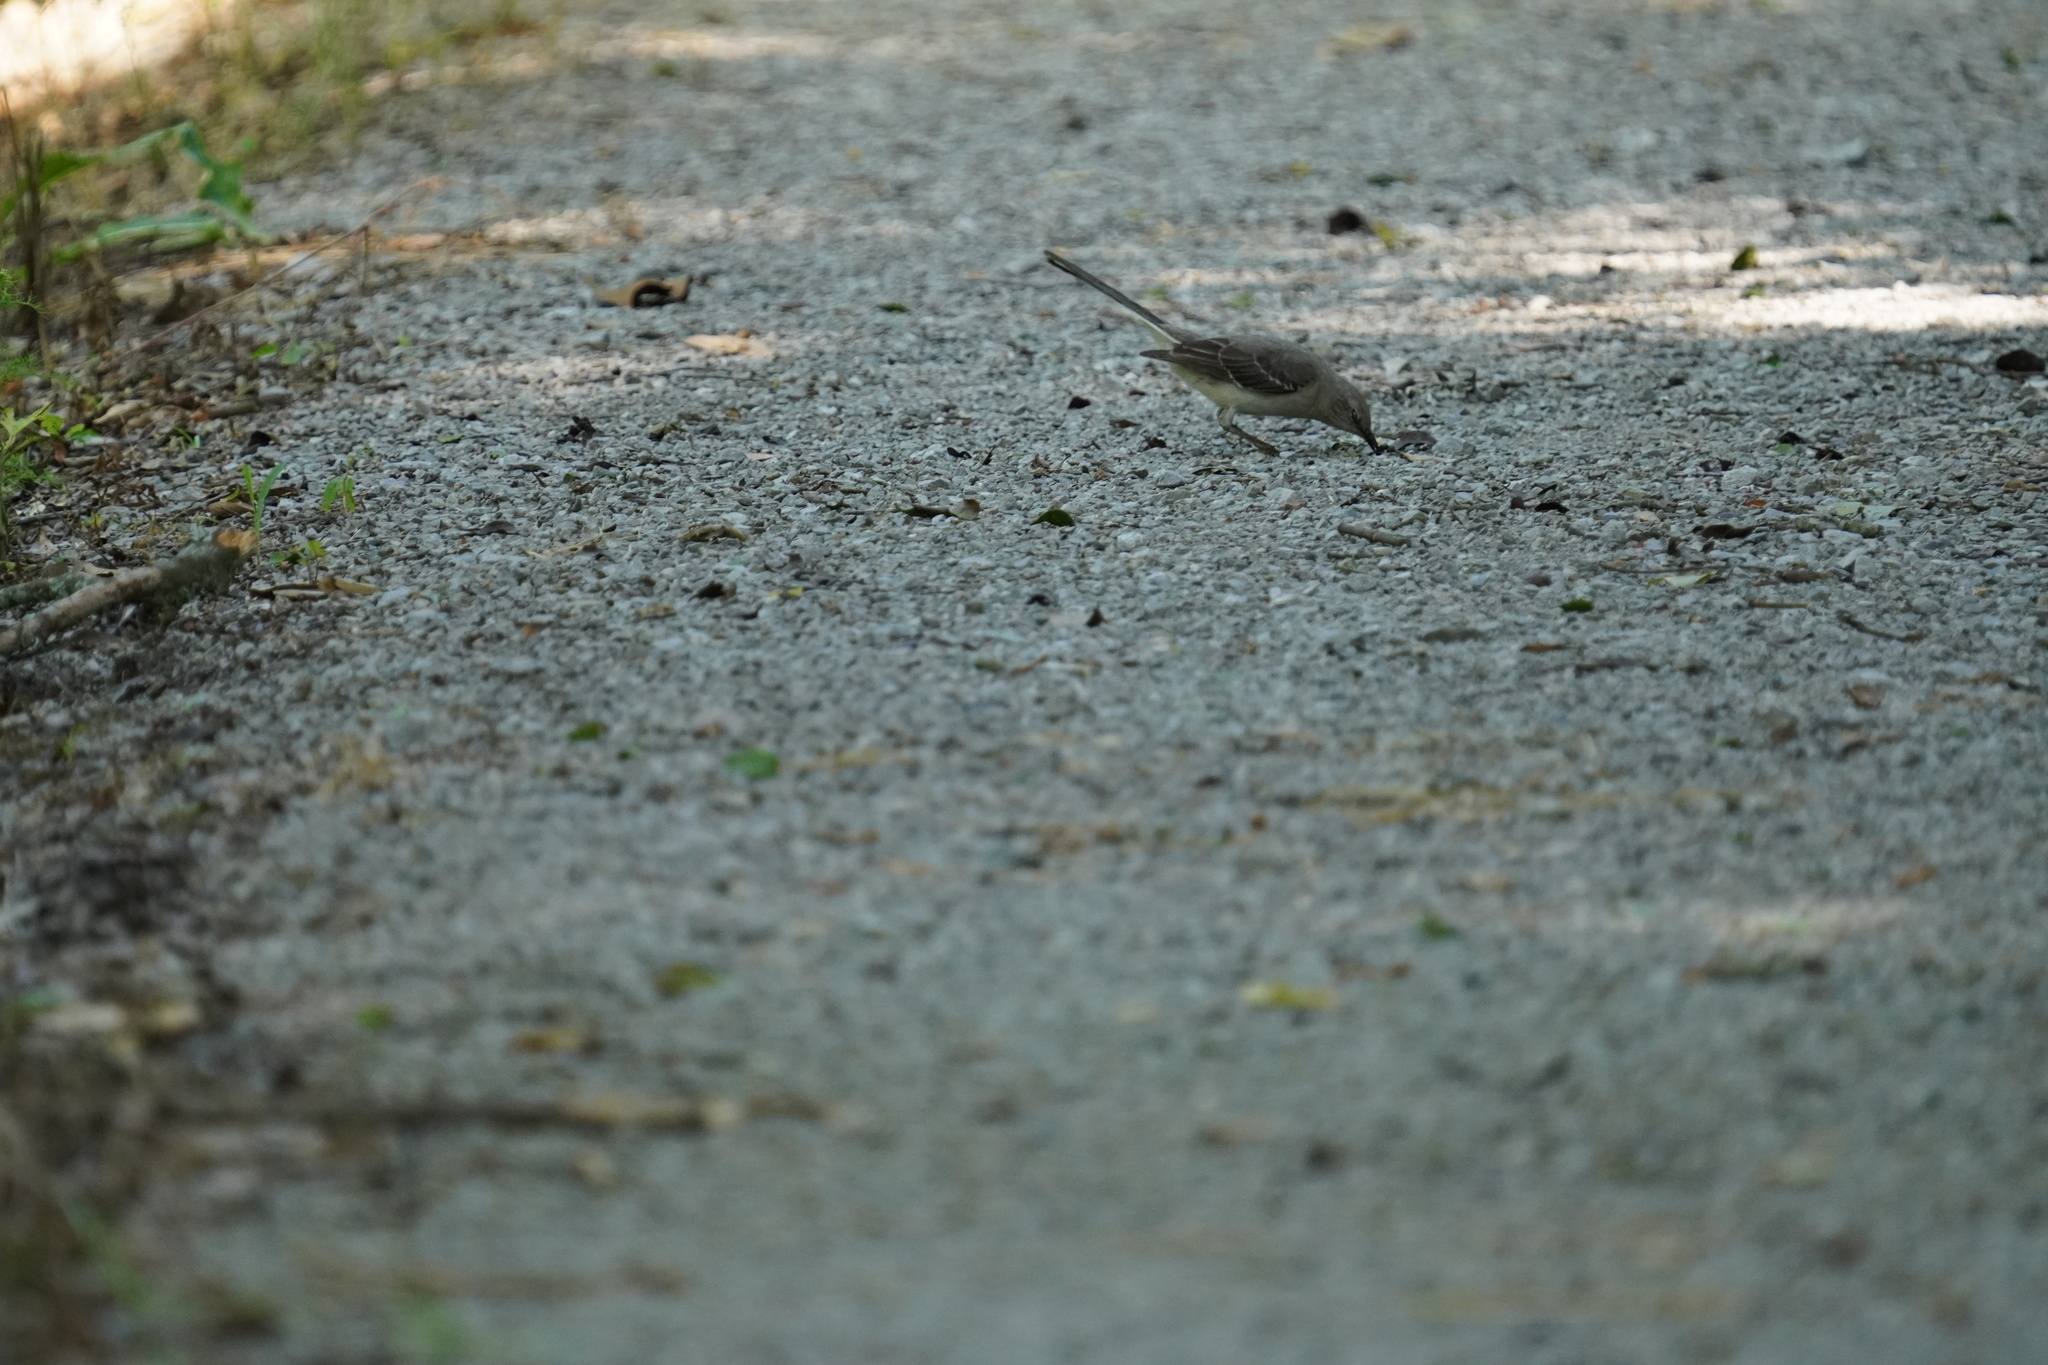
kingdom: Animalia
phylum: Chordata
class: Aves
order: Passeriformes
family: Mimidae
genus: Mimus
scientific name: Mimus polyglottos
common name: Northern mockingbird
